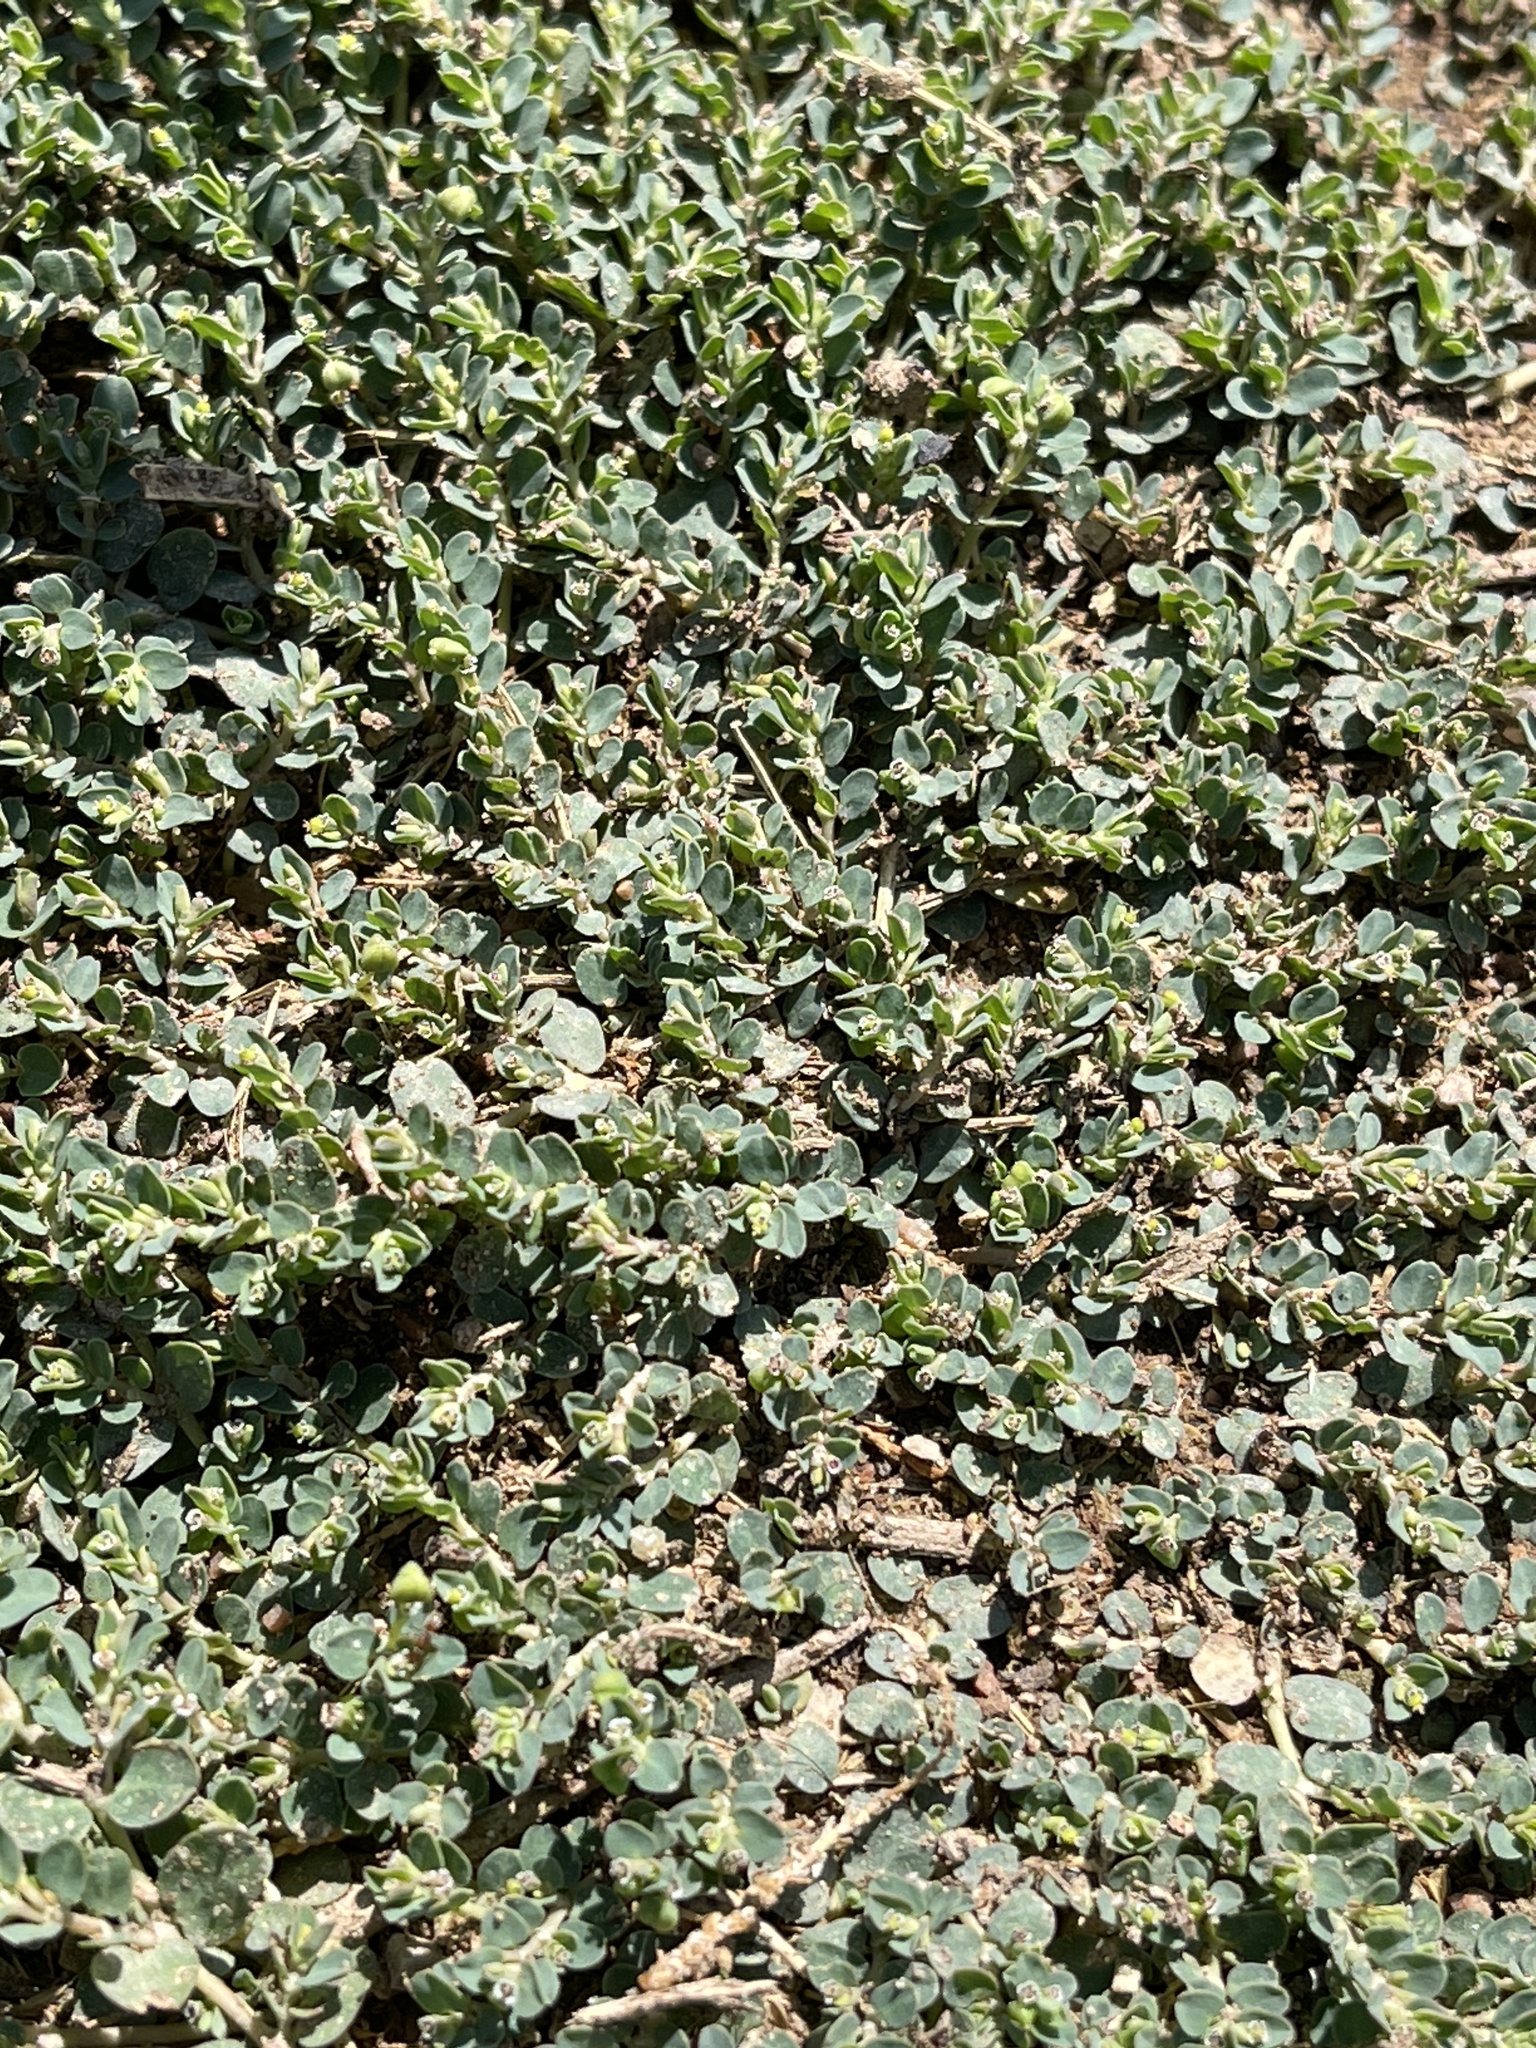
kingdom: Plantae
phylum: Tracheophyta
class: Magnoliopsida
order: Malpighiales
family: Euphorbiaceae
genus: Euphorbia
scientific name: Euphorbia serpens
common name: Matted sandmat
